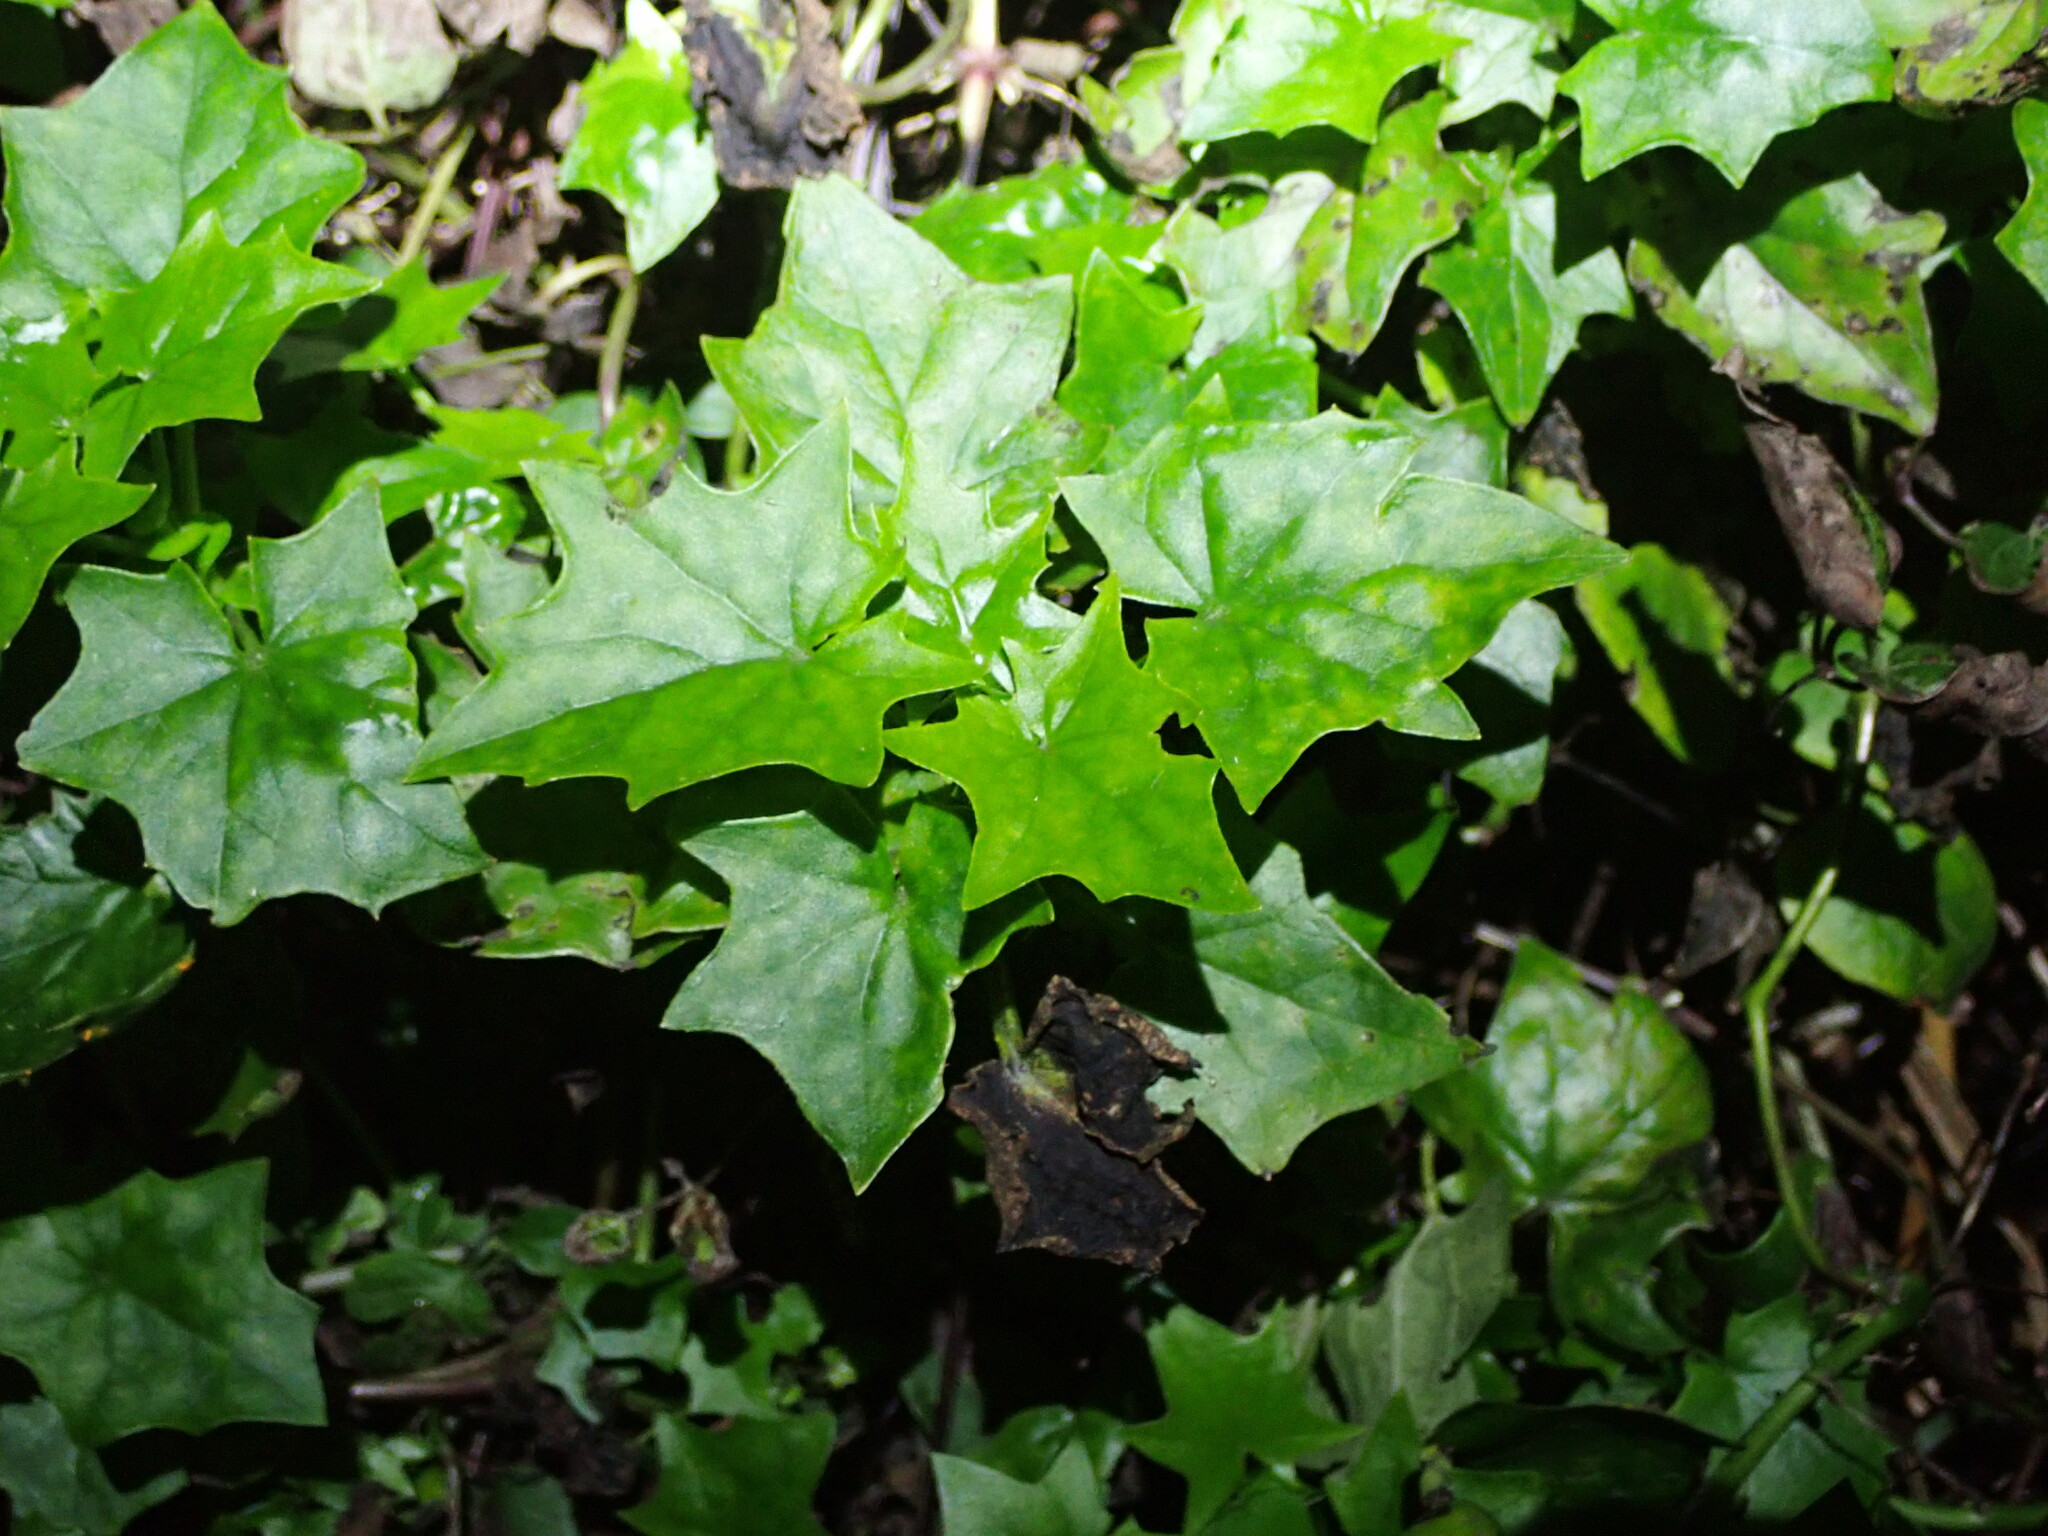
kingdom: Plantae
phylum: Tracheophyta
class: Magnoliopsida
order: Asterales
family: Asteraceae
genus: Delairea
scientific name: Delairea odorata
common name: Cape-ivy
